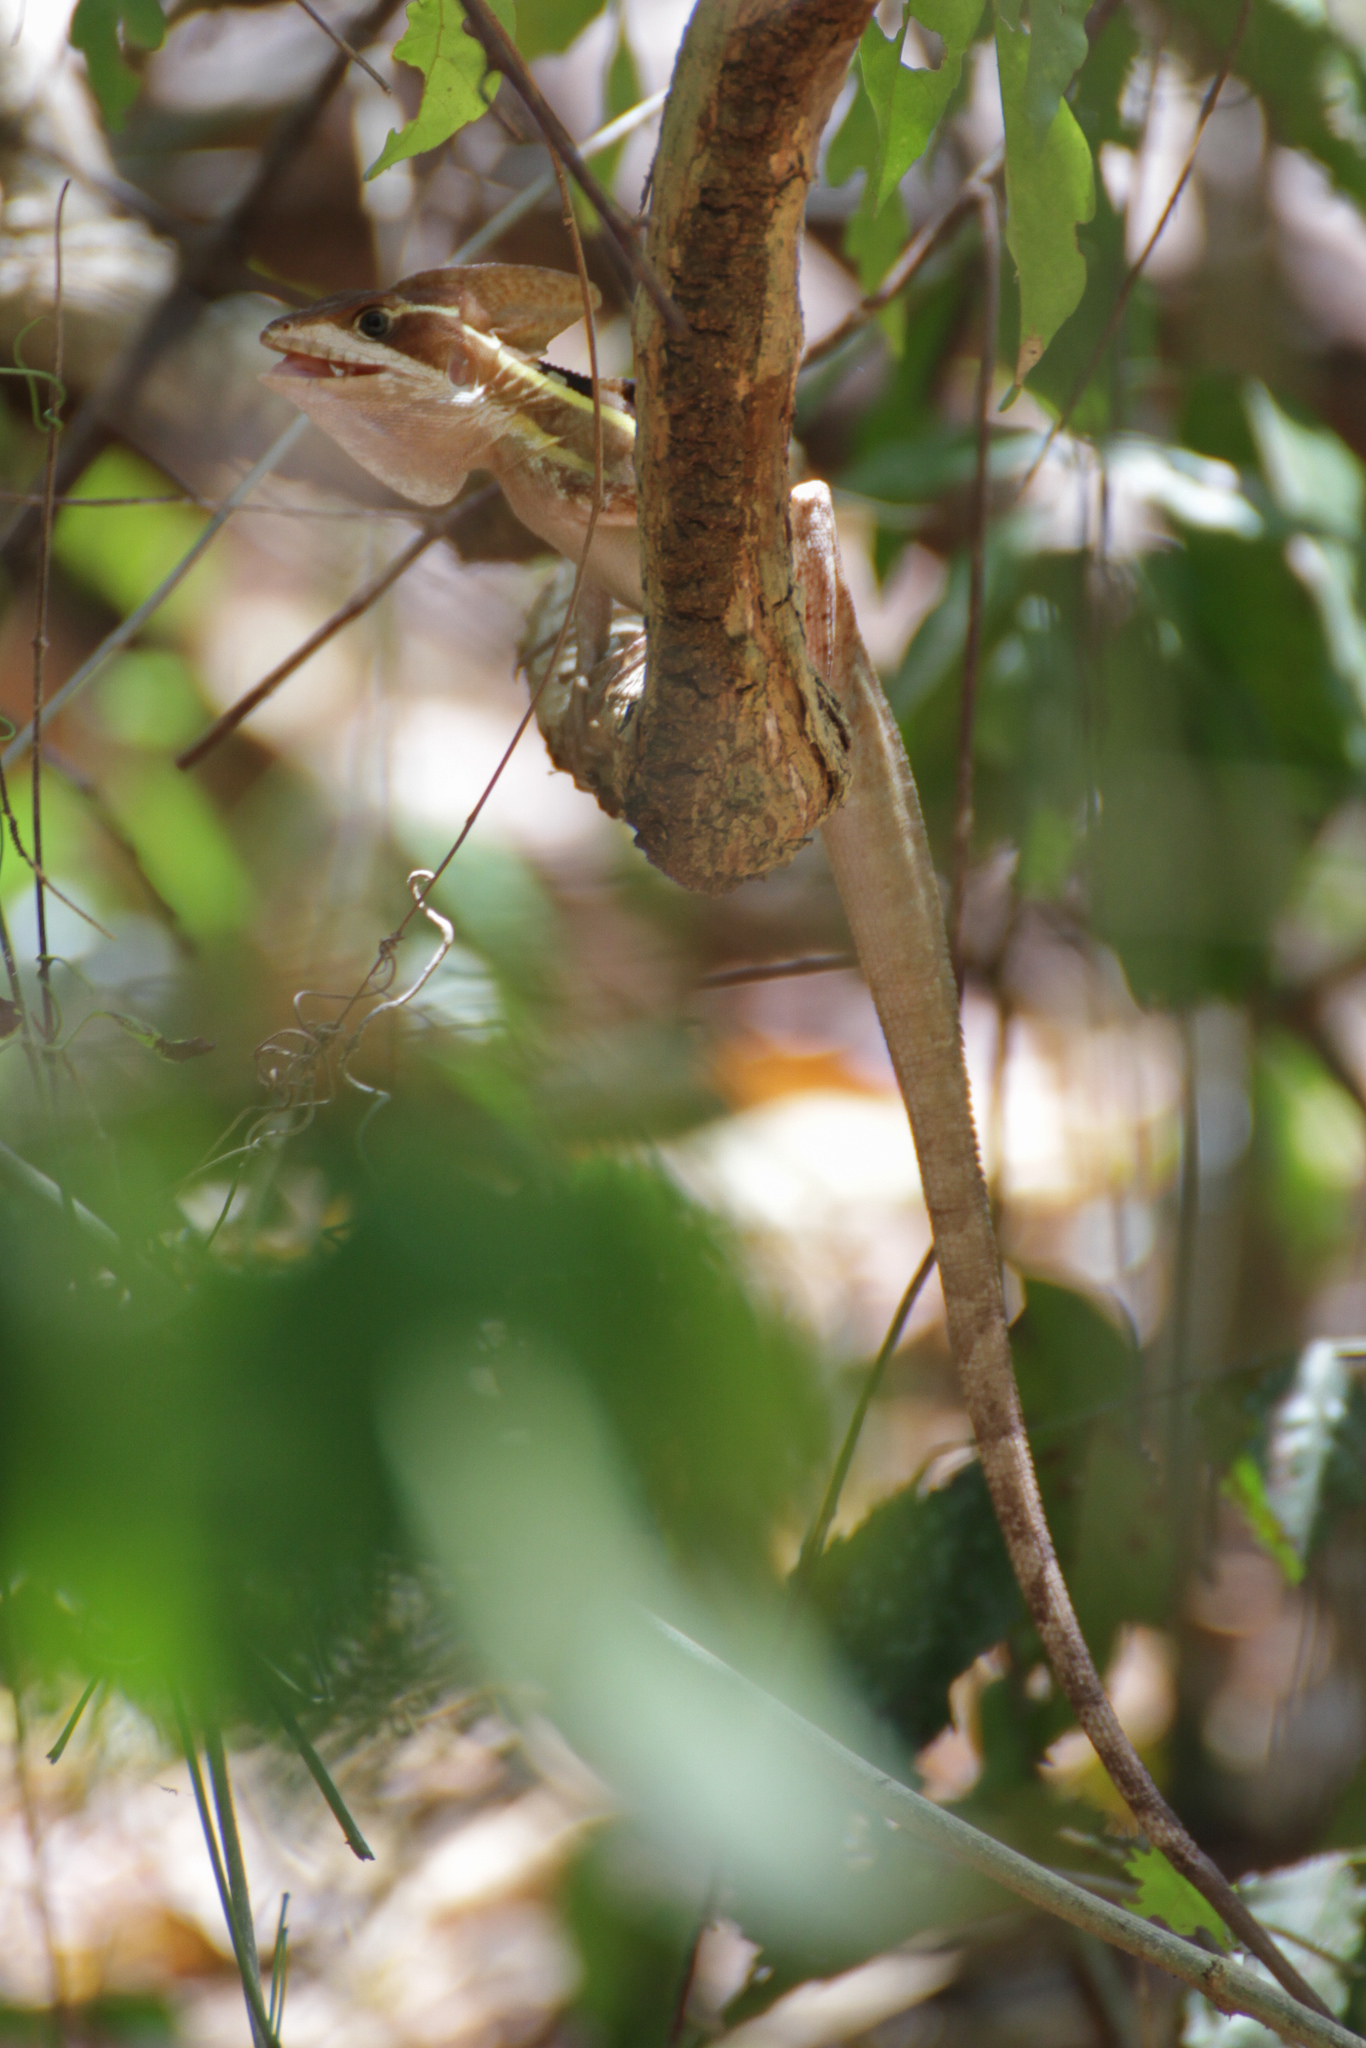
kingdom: Animalia
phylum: Chordata
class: Squamata
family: Corytophanidae
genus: Basiliscus
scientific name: Basiliscus vittatus
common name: Brown basilisk
